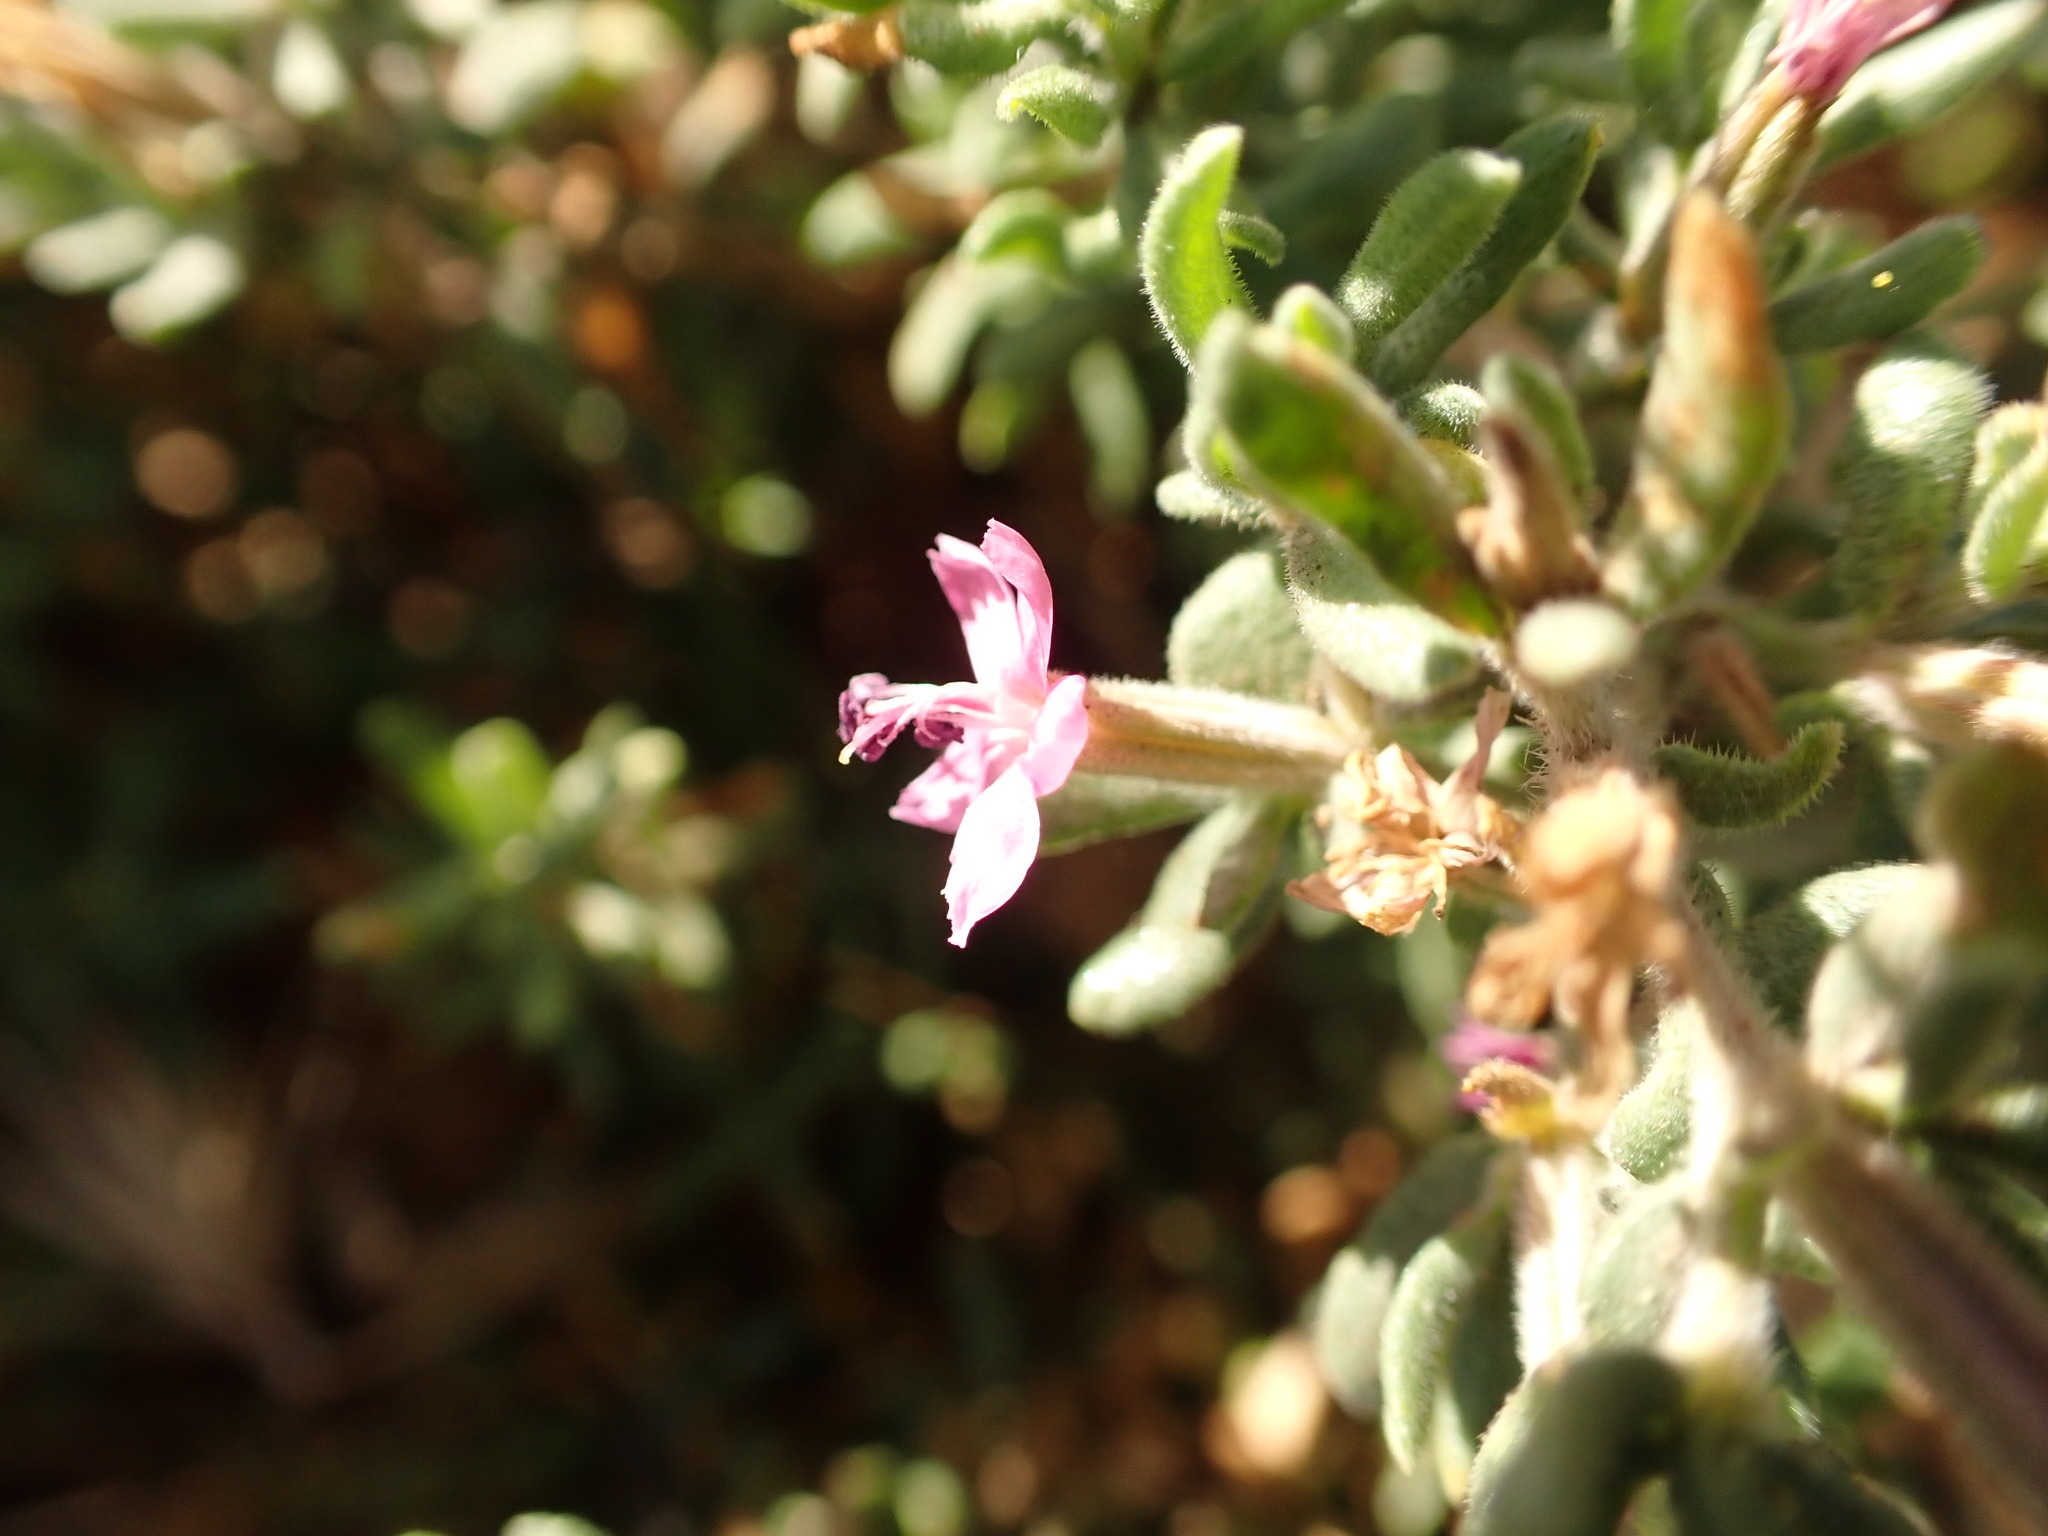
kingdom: Plantae
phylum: Tracheophyta
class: Magnoliopsida
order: Caryophyllales
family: Frankeniaceae
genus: Frankenia
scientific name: Frankenia salina
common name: Alkali seaheath
